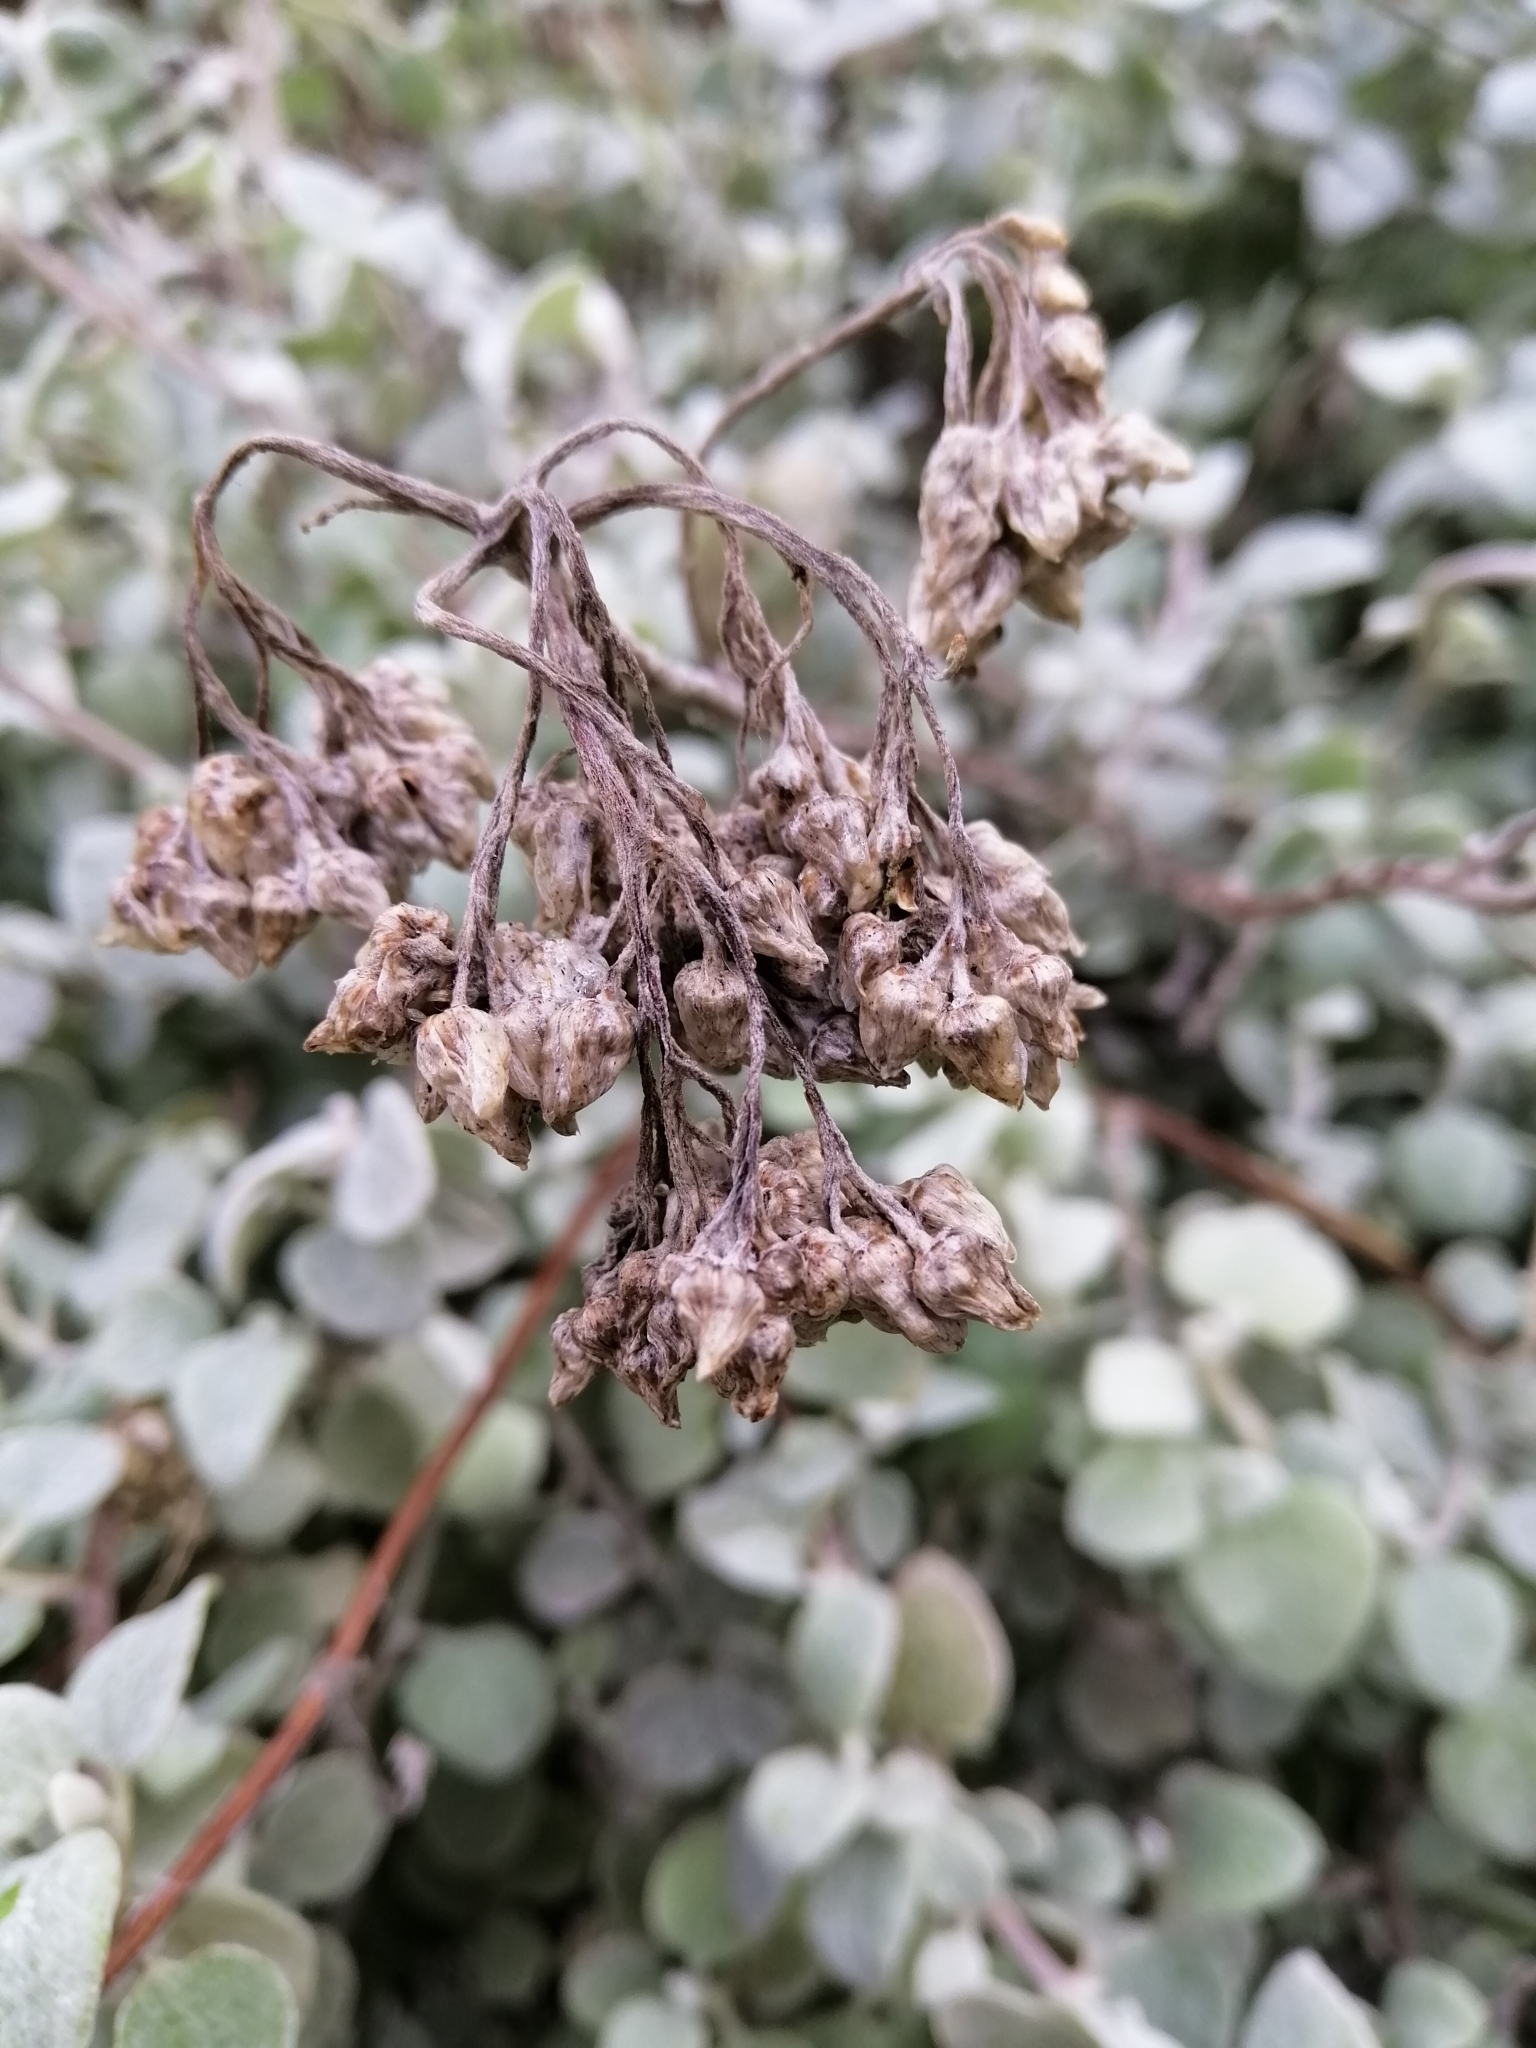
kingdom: Plantae
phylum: Tracheophyta
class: Magnoliopsida
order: Asterales
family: Asteraceae
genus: Helichrysum
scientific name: Helichrysum petiolare
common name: Licorice-plant
